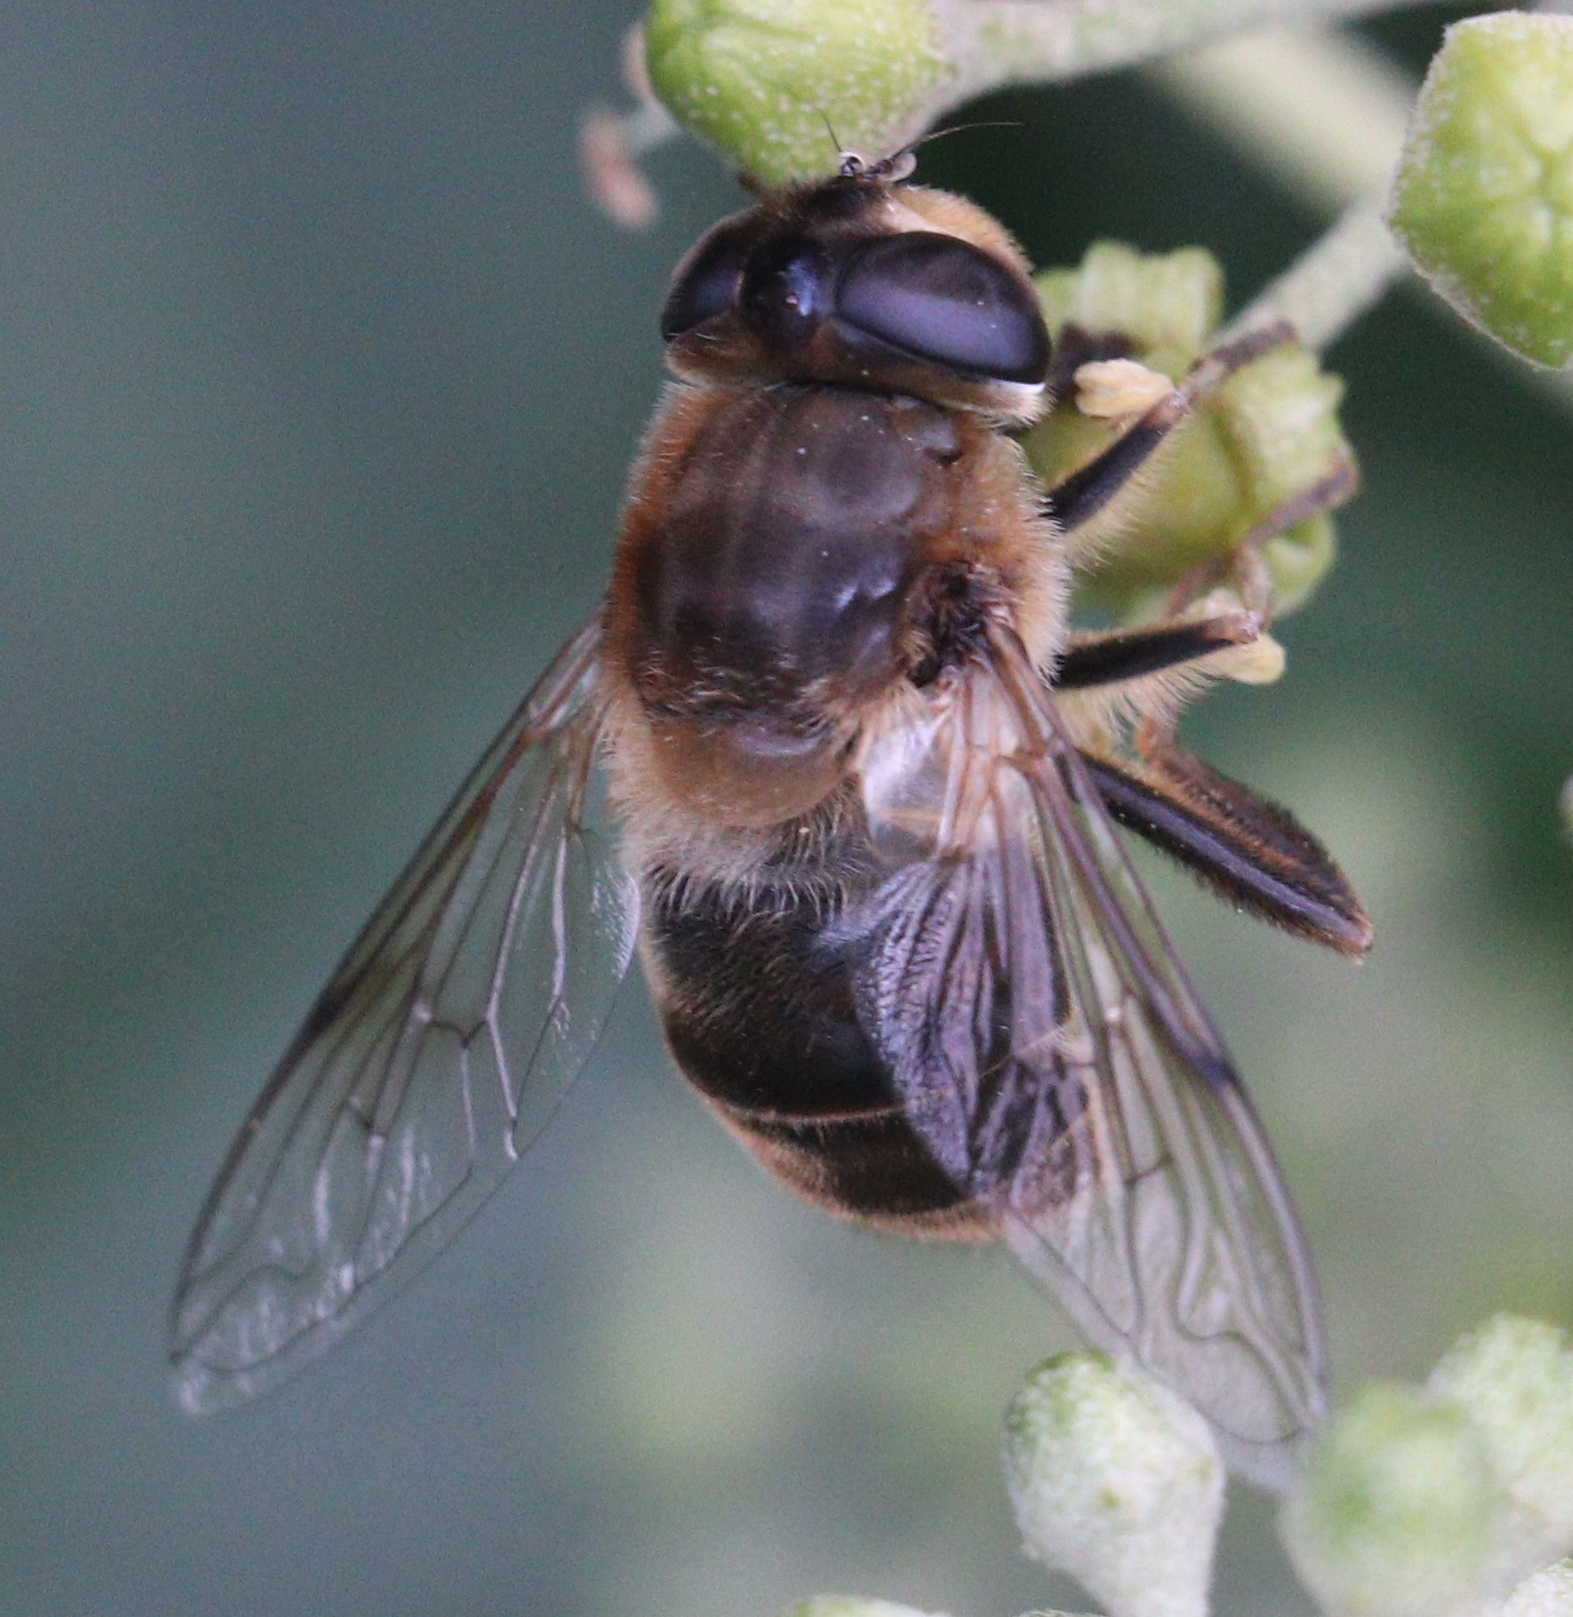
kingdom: Animalia
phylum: Arthropoda
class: Insecta
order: Diptera
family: Syrphidae
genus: Eristalis
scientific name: Eristalis tenax
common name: Drone fly
